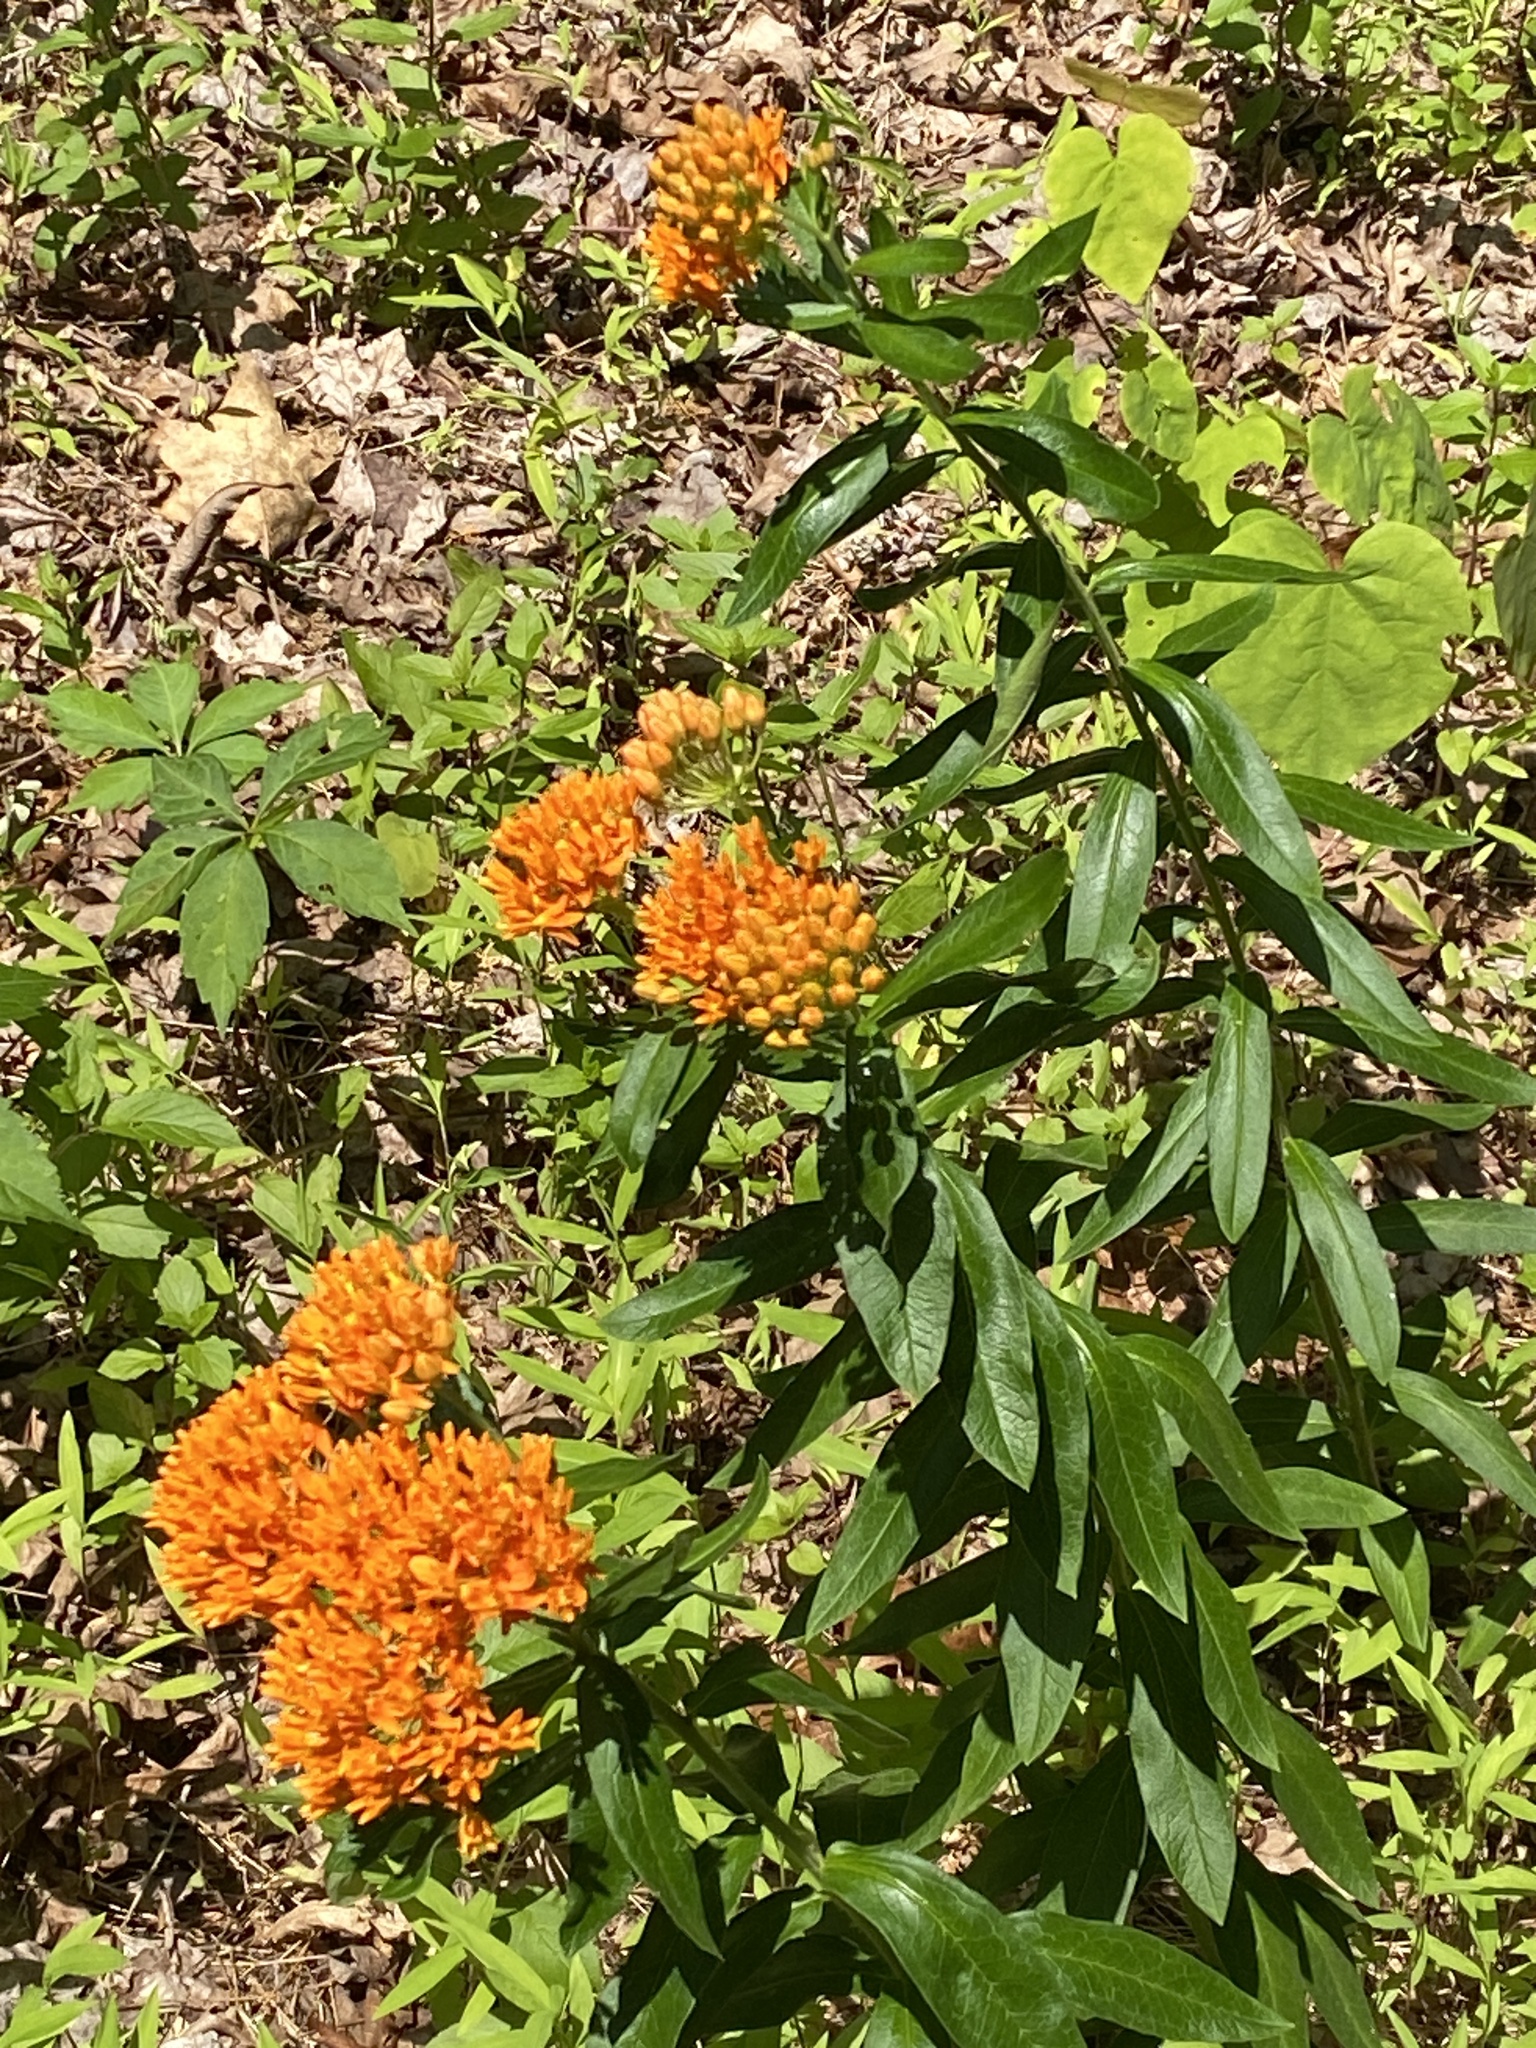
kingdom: Plantae
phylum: Tracheophyta
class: Magnoliopsida
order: Gentianales
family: Apocynaceae
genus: Asclepias
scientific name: Asclepias tuberosa
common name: Butterfly milkweed
